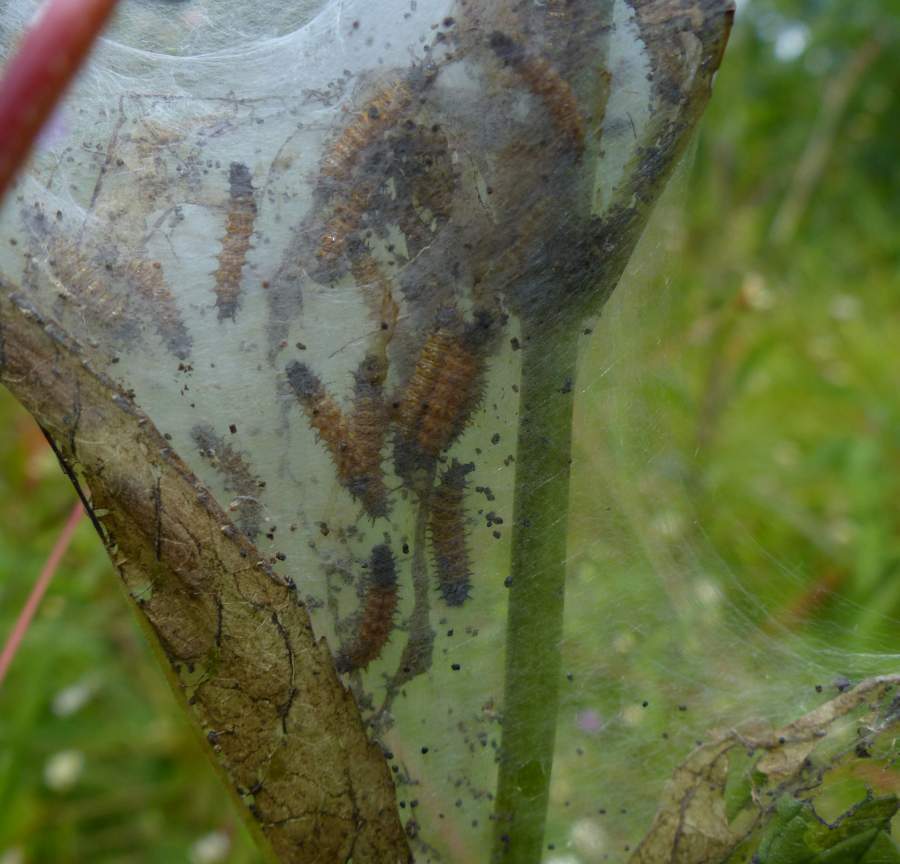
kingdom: Animalia
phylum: Arthropoda
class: Insecta
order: Lepidoptera
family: Nymphalidae
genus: Euphydryas
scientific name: Euphydryas phaeton
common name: Baltimore checkerspot
